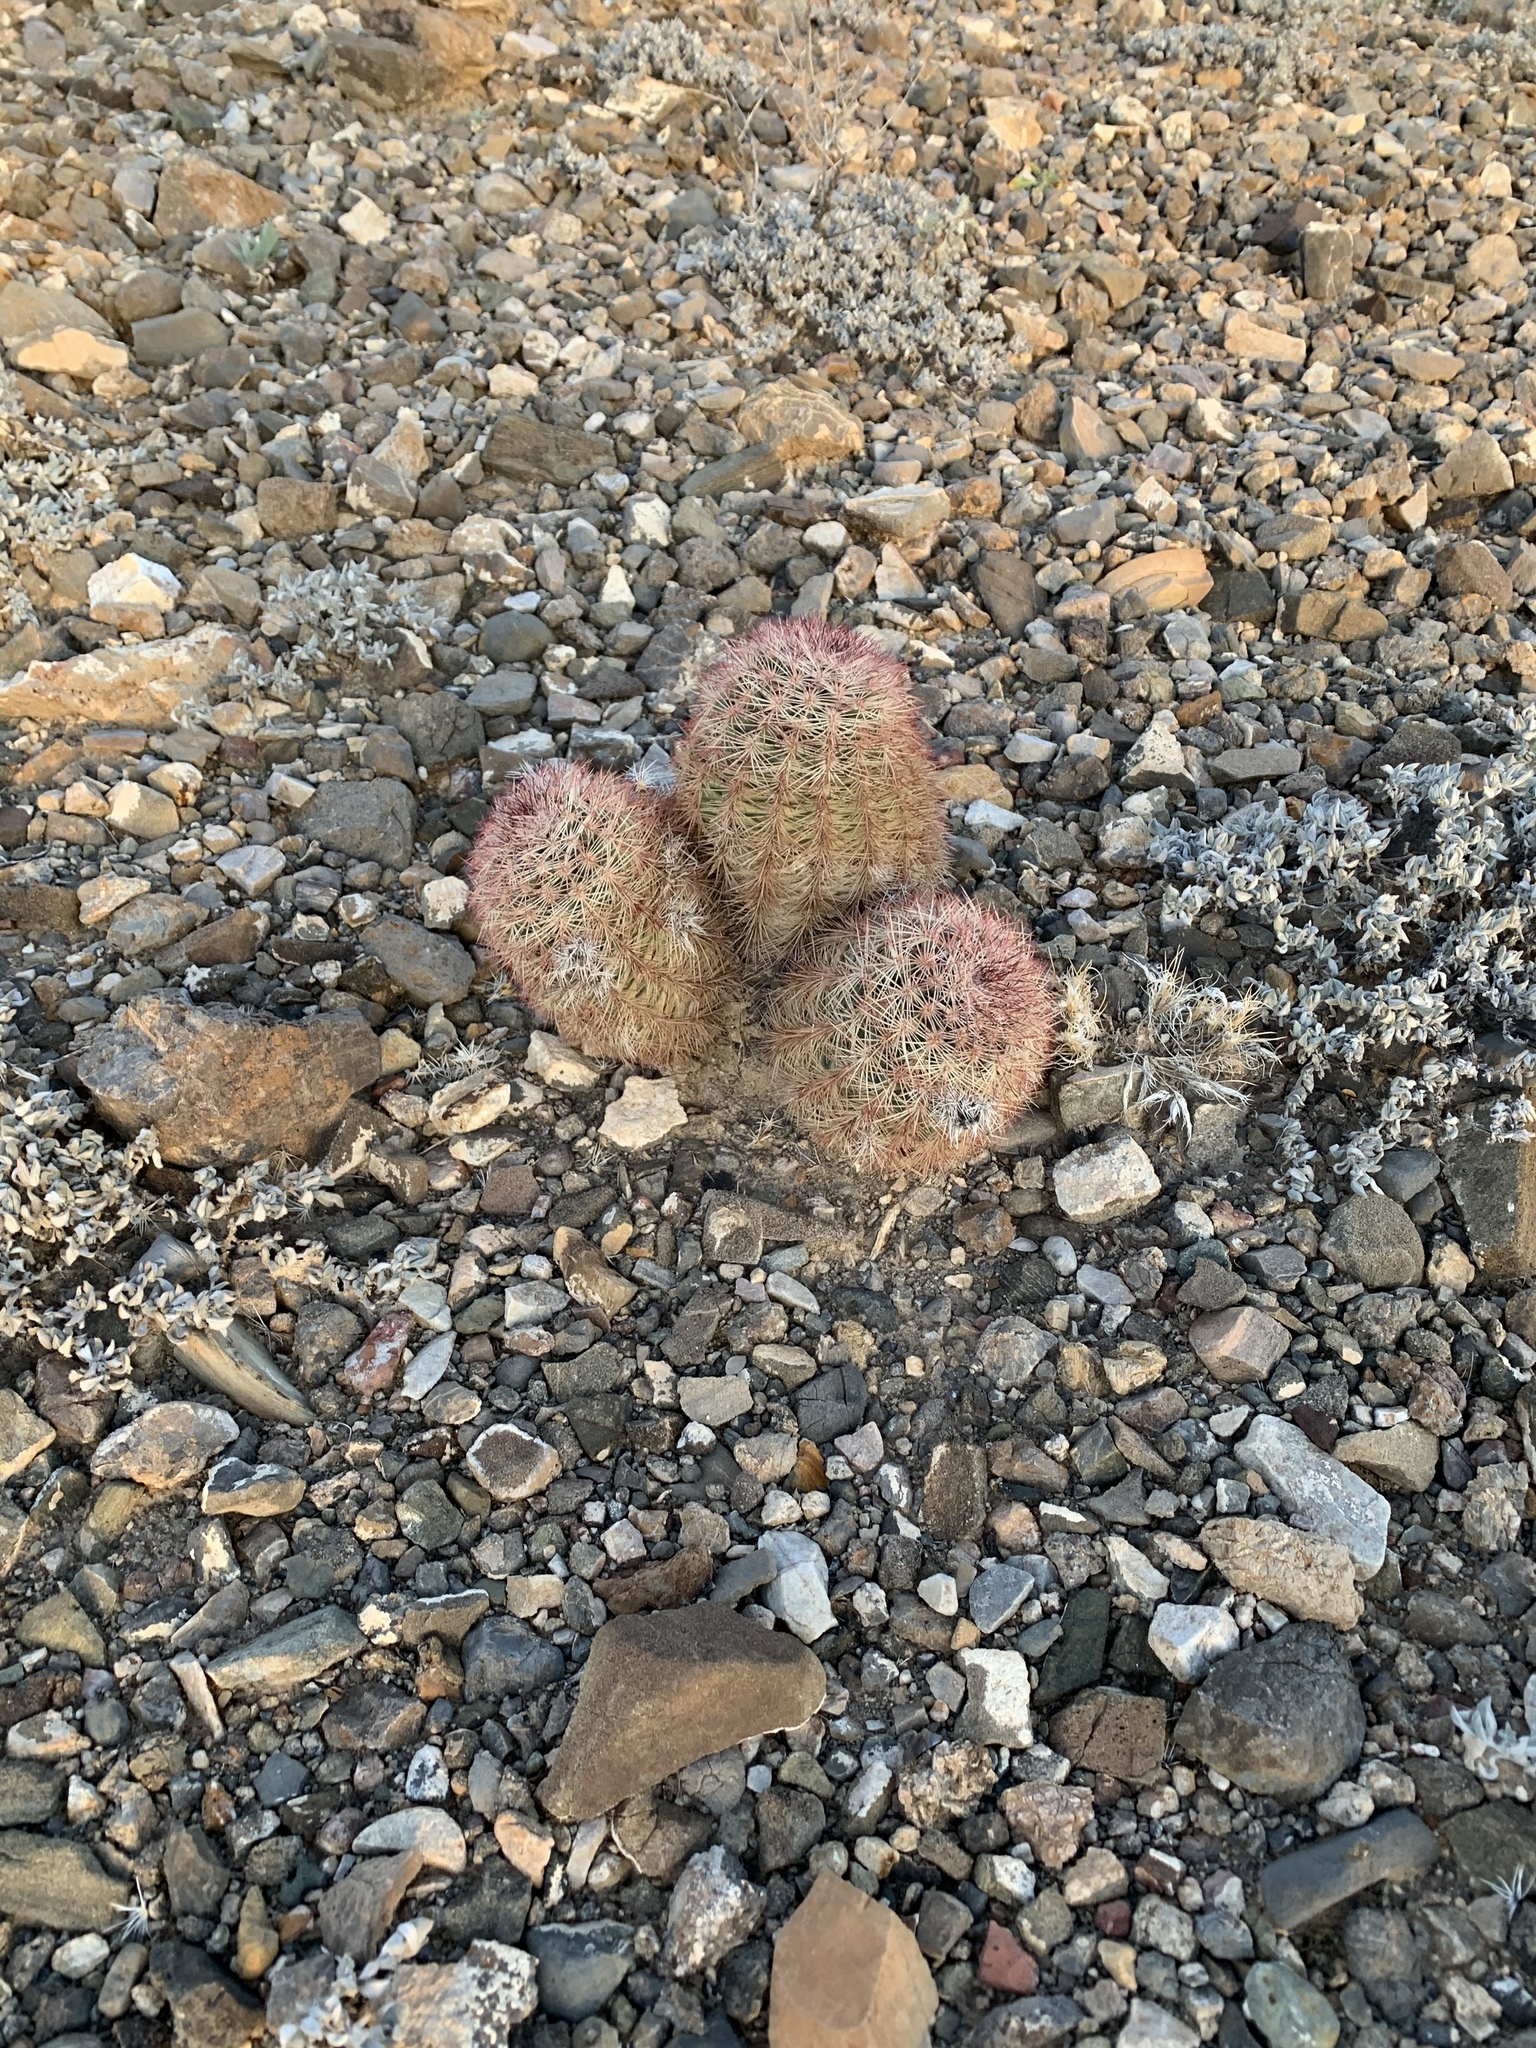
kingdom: Plantae
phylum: Tracheophyta
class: Magnoliopsida
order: Caryophyllales
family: Cactaceae
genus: Echinocereus
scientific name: Echinocereus dasyacanthus
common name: Spiny hedgehog cactus
